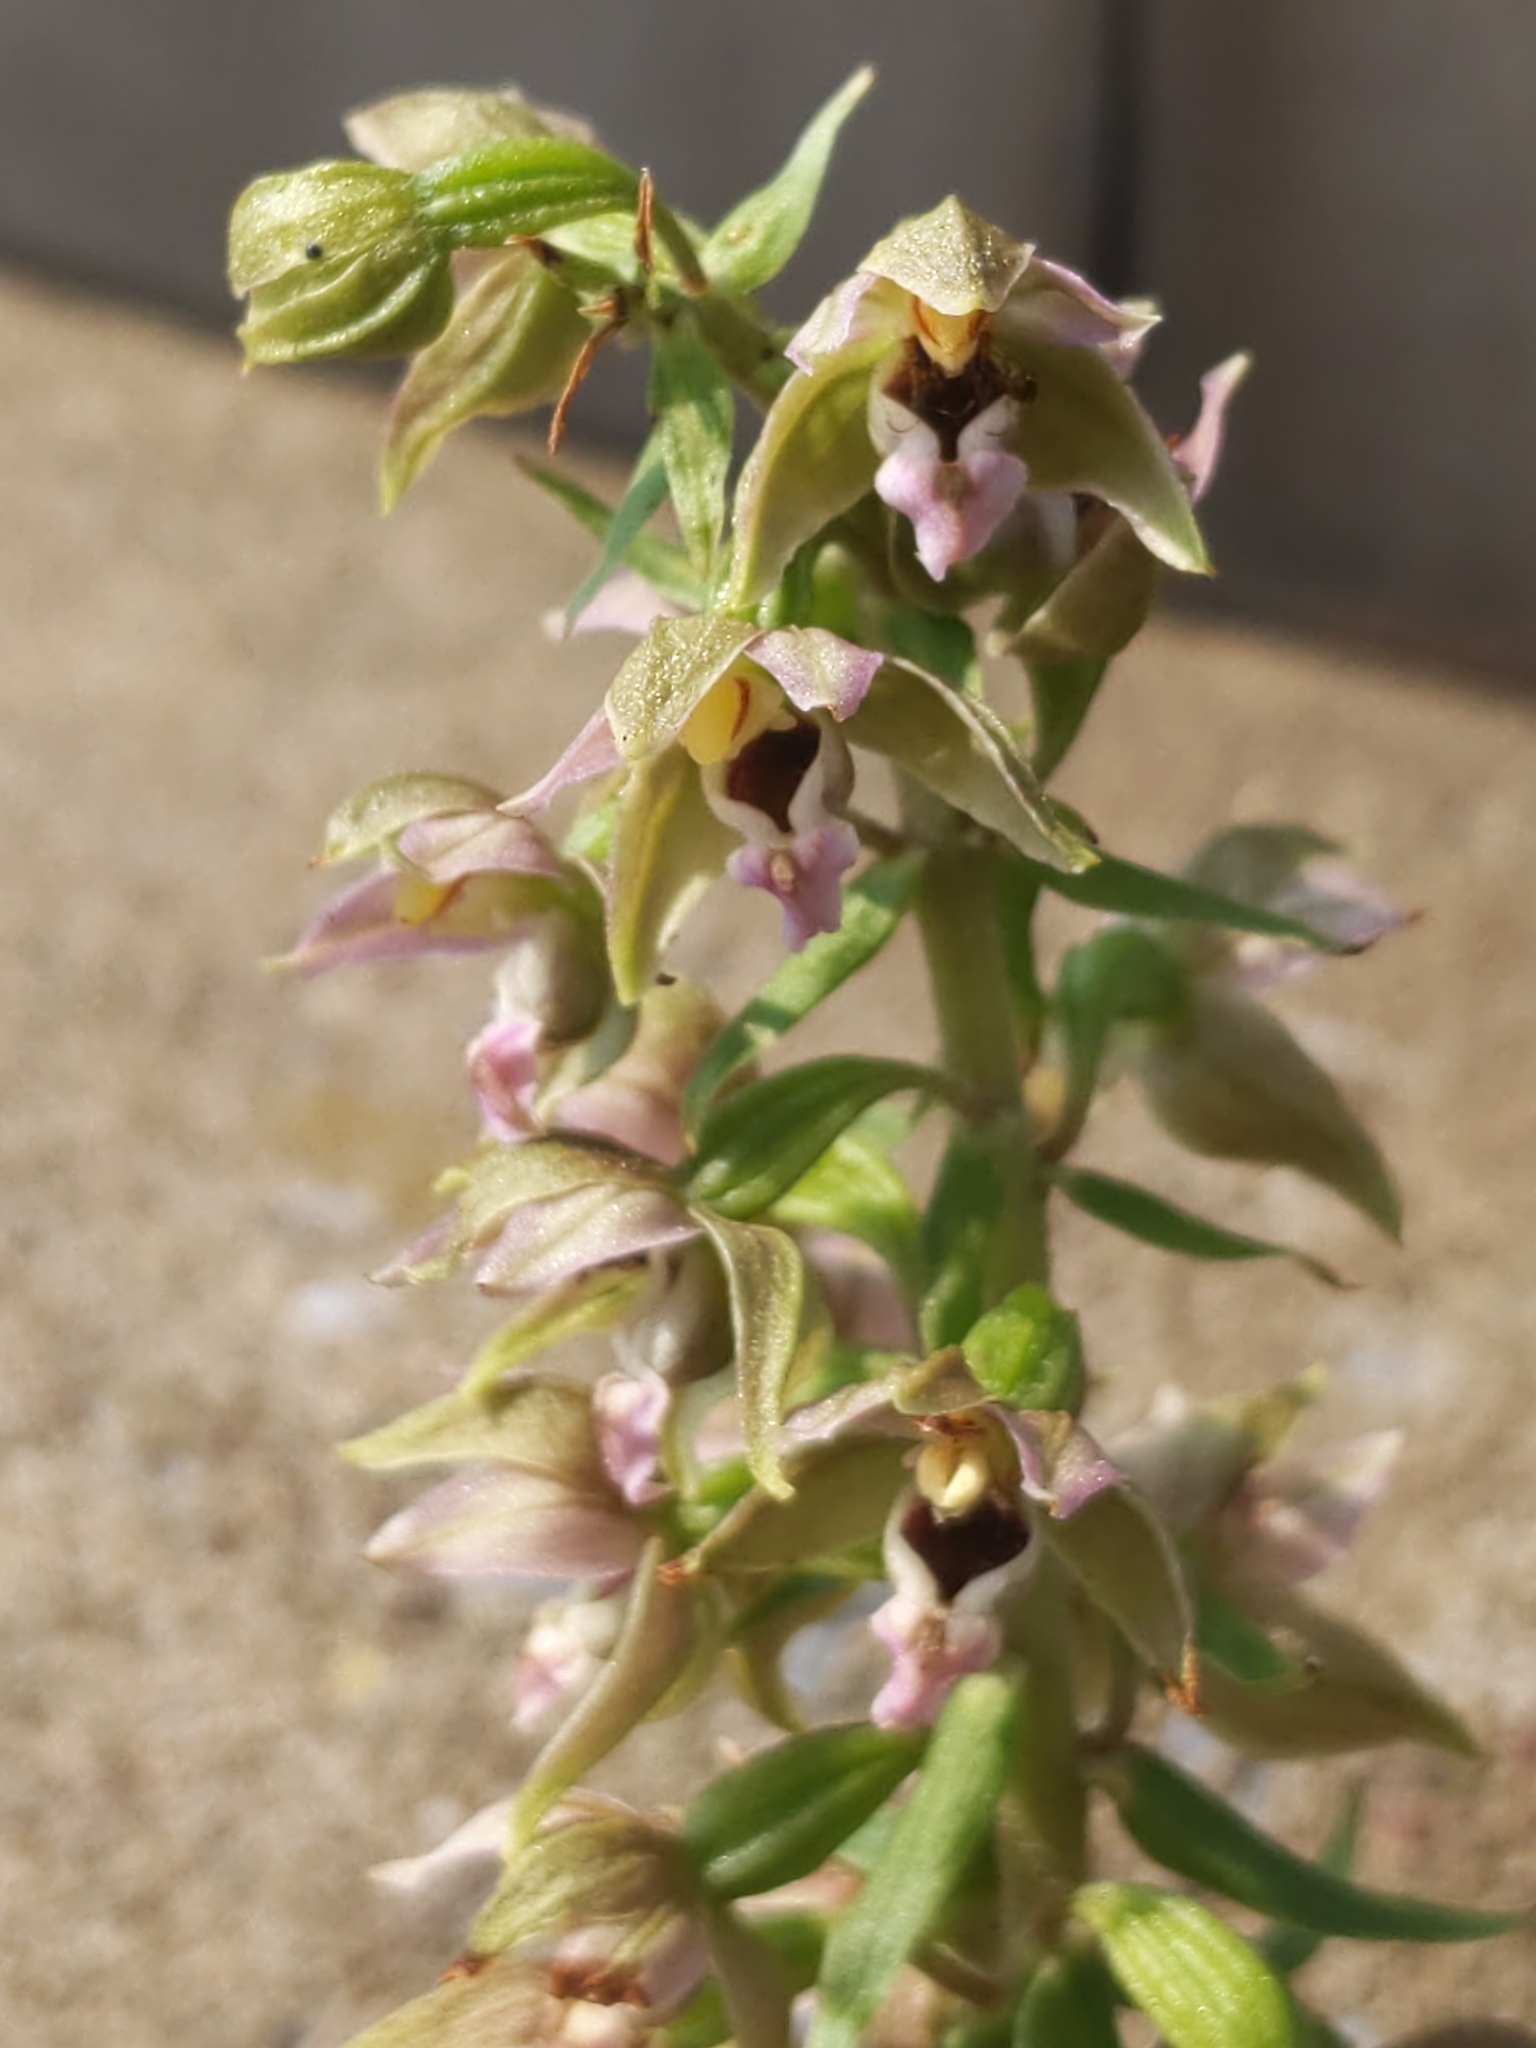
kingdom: Plantae
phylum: Tracheophyta
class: Liliopsida
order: Asparagales
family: Orchidaceae
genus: Epipactis
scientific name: Epipactis helleborine
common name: Broad-leaved helleborine
